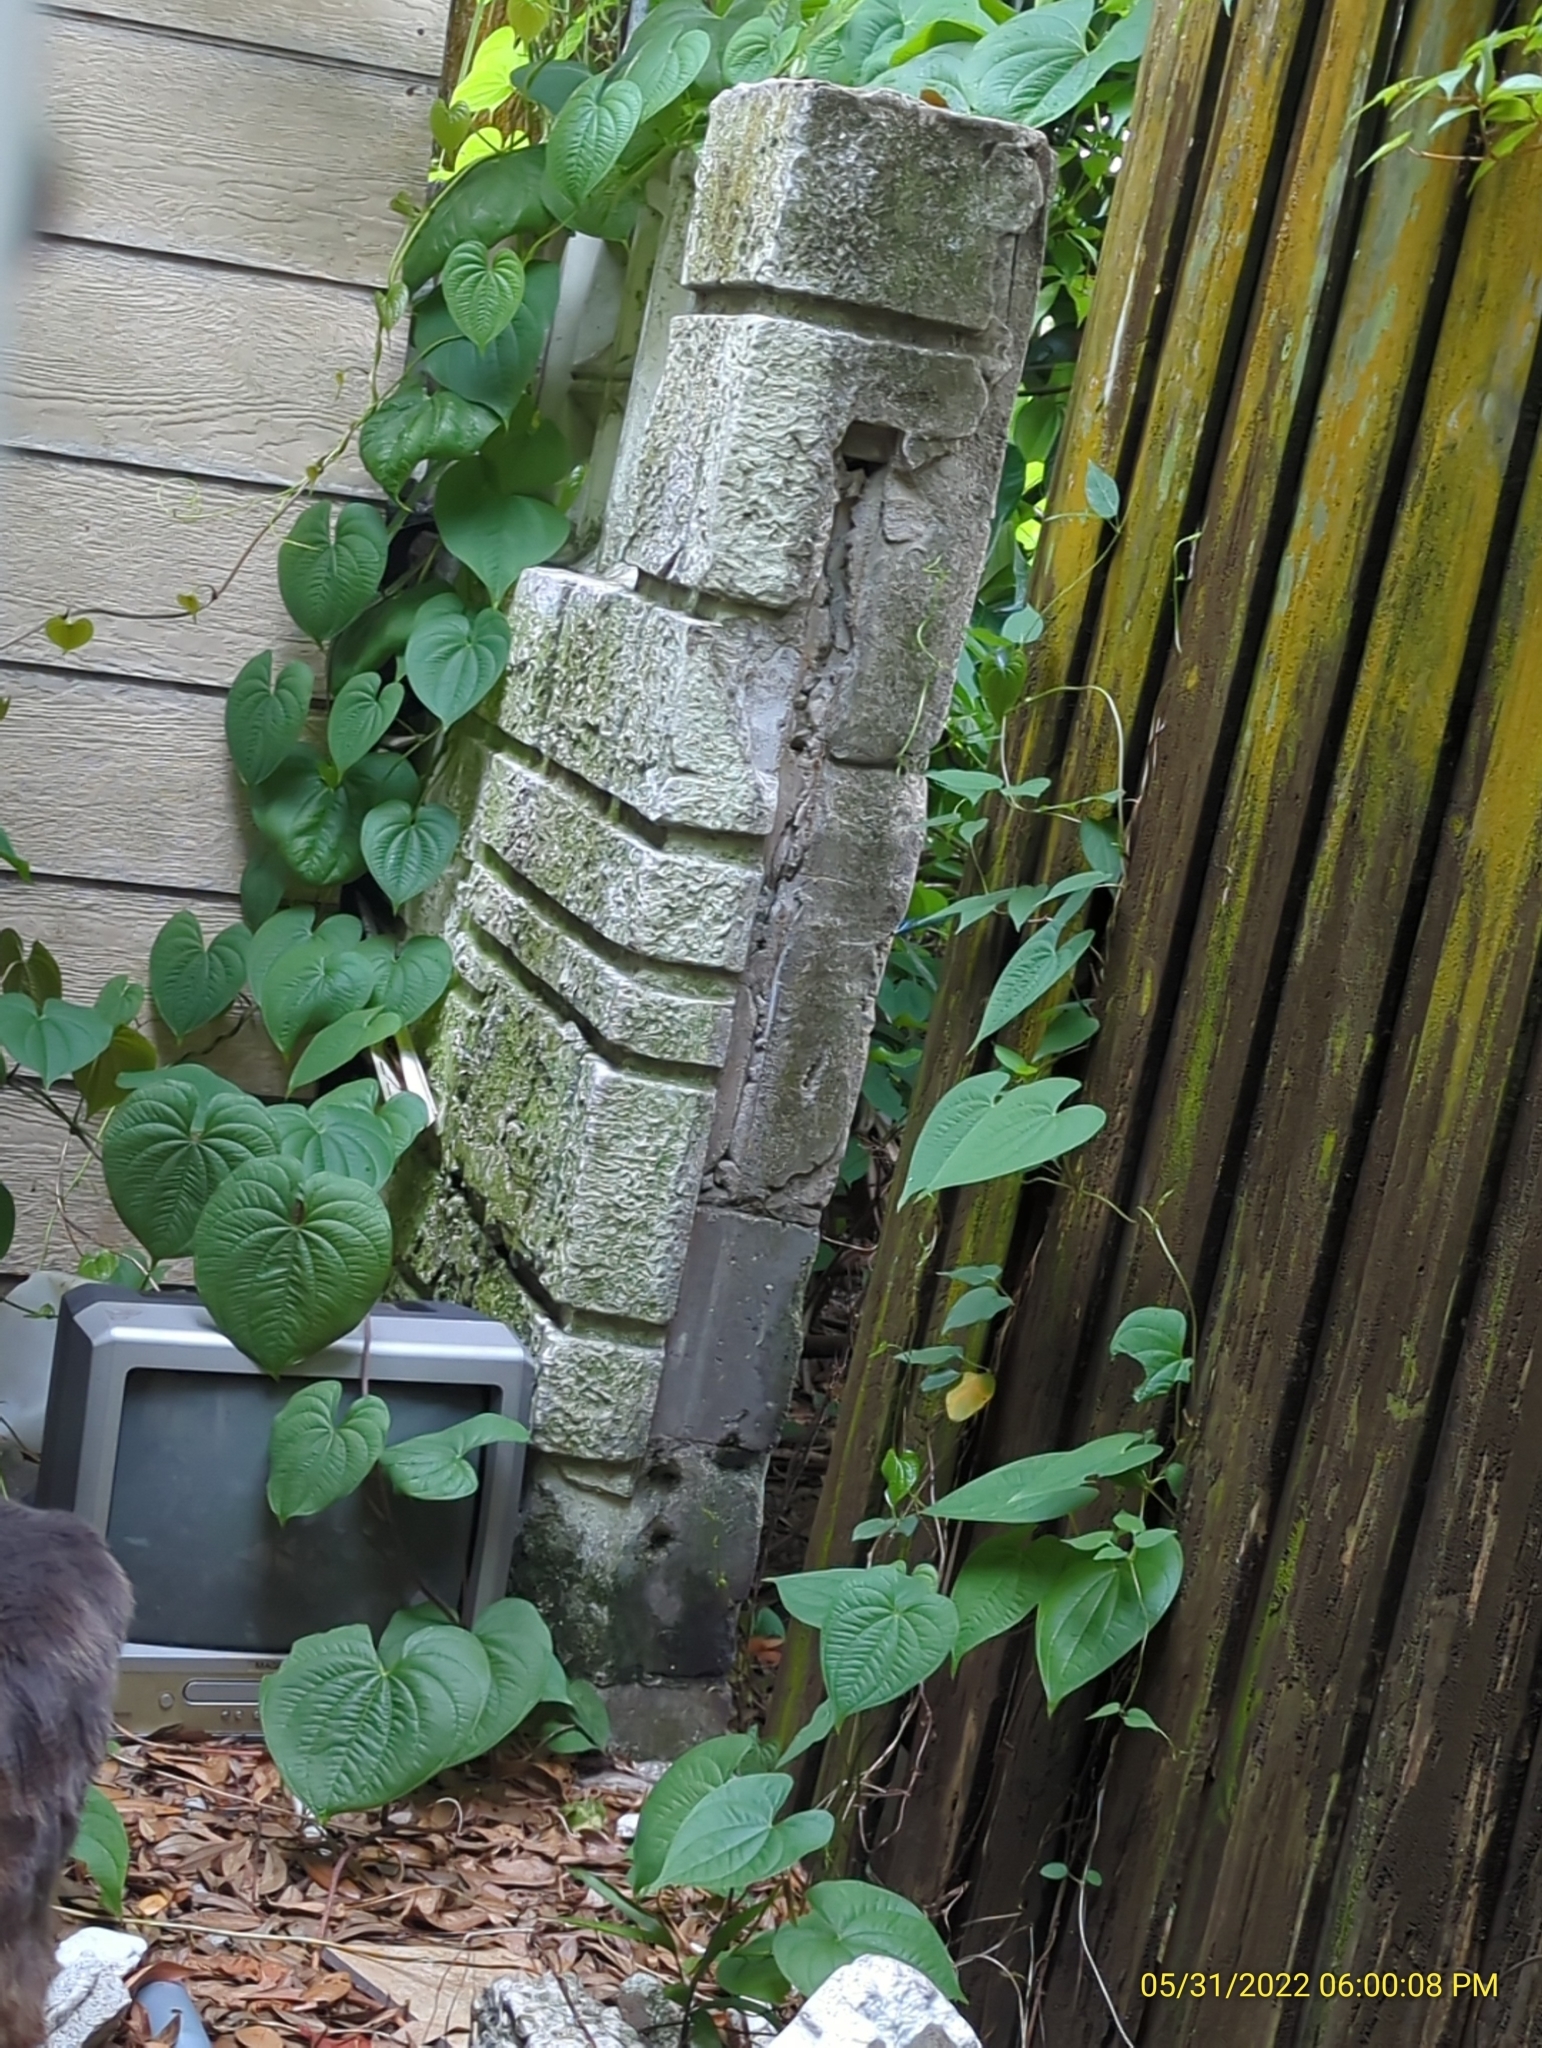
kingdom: Plantae
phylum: Tracheophyta
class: Liliopsida
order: Dioscoreales
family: Dioscoreaceae
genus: Dioscorea
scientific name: Dioscorea bulbifera
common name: Air yam
